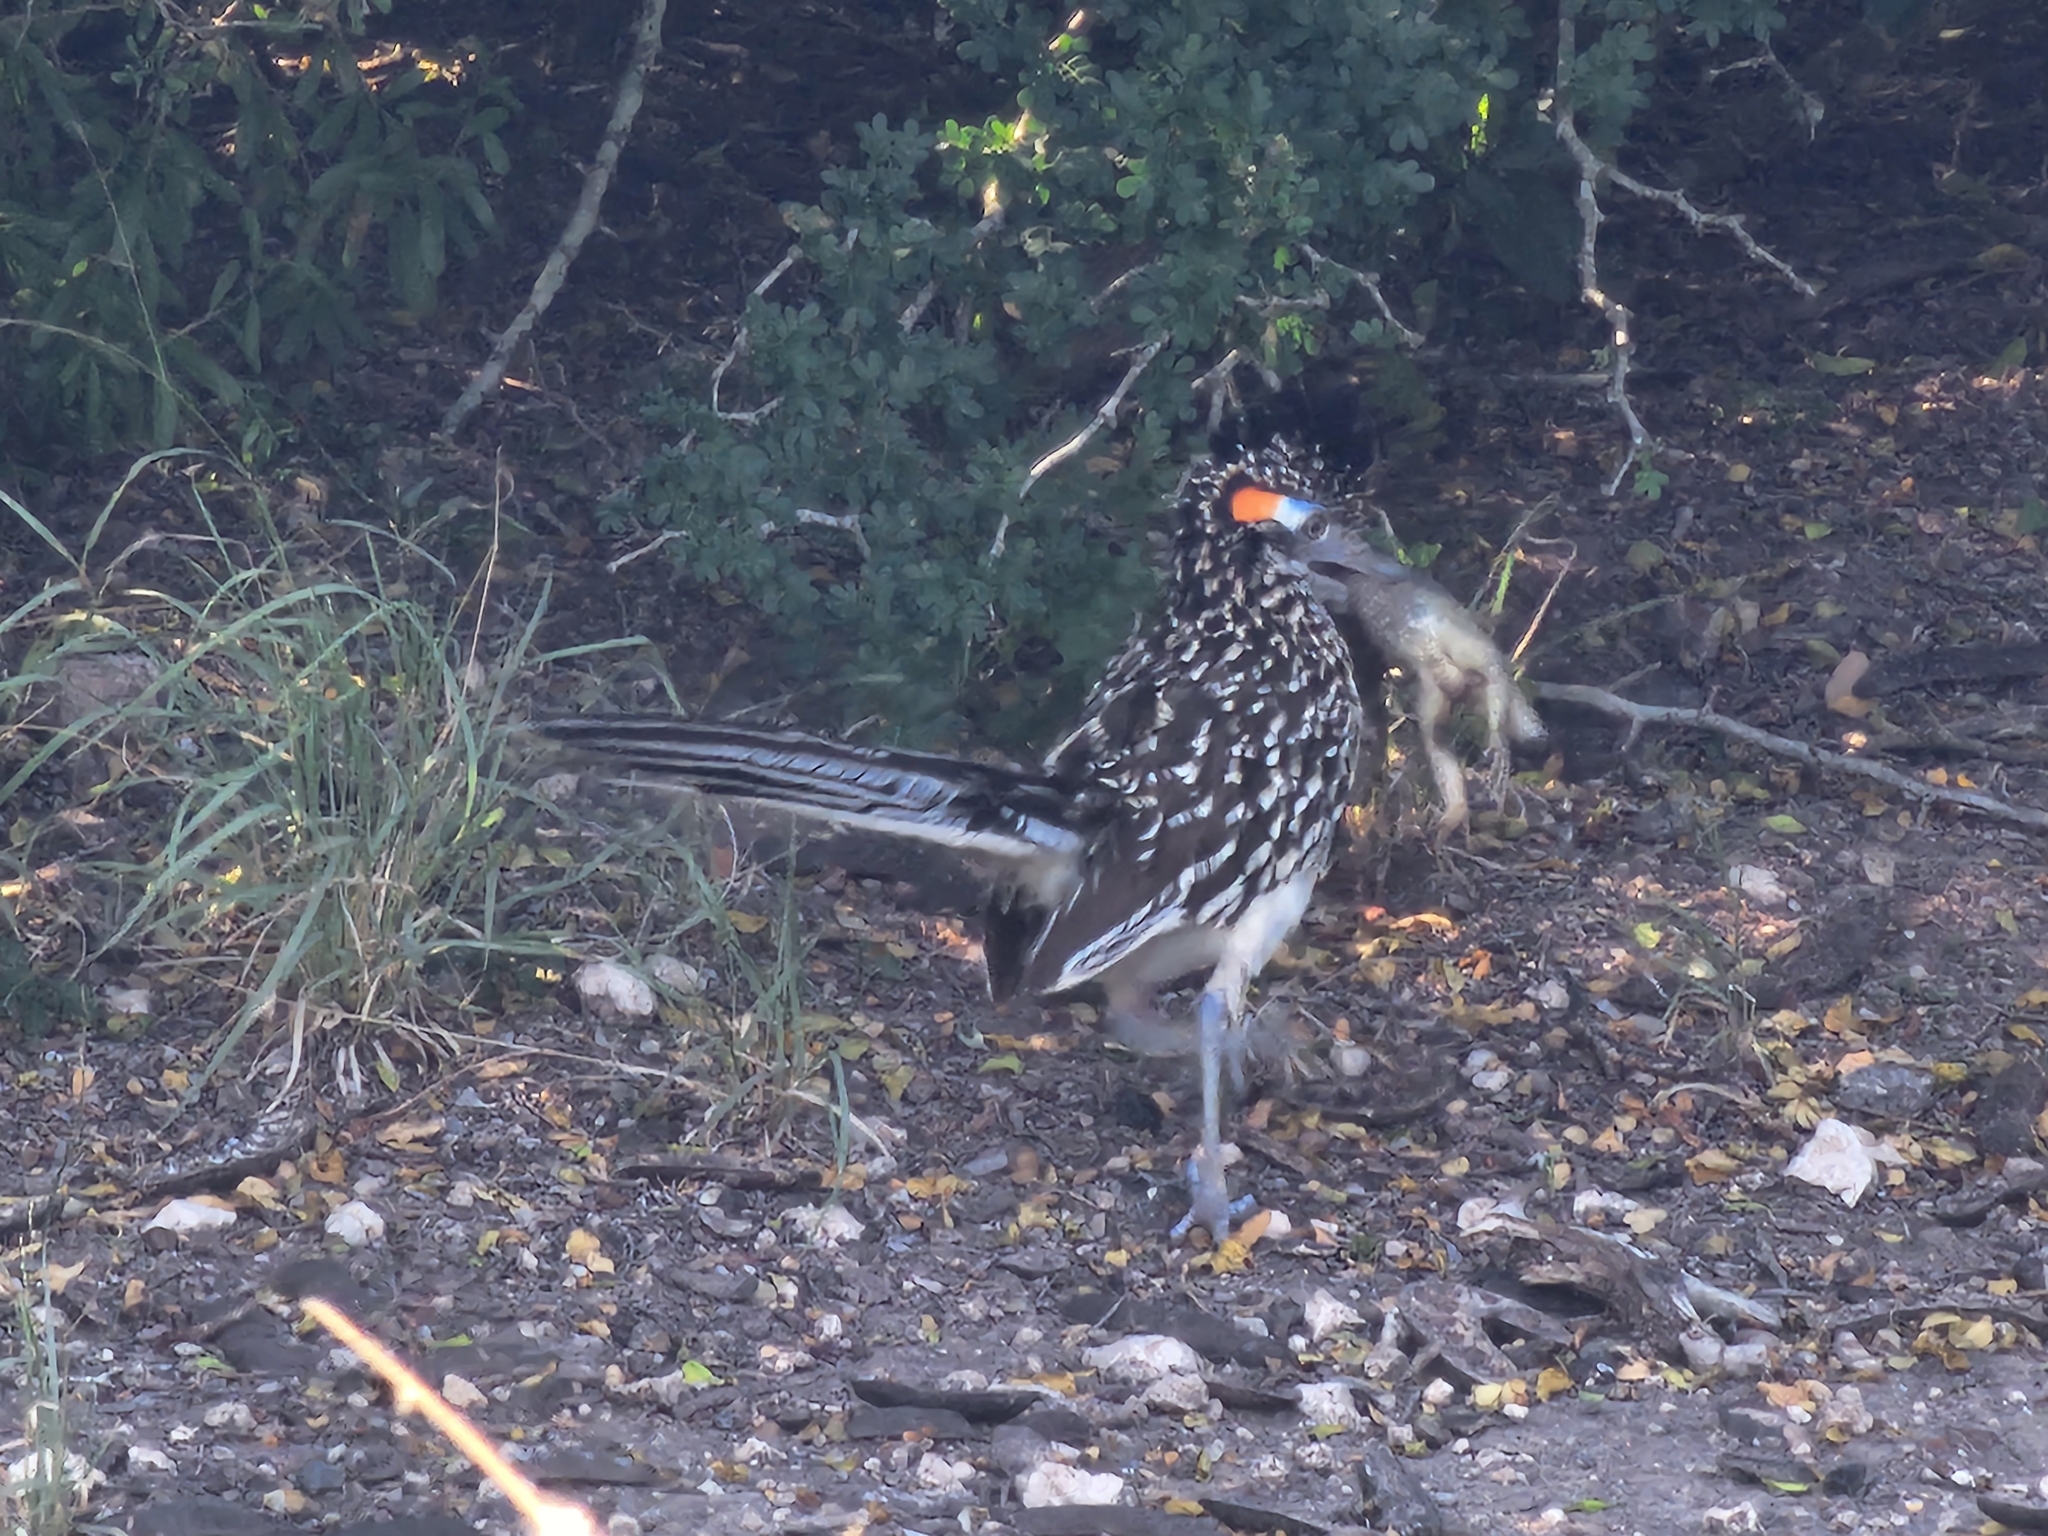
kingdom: Animalia
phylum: Chordata
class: Aves
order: Cuculiformes
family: Cuculidae
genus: Geococcyx
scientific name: Geococcyx californianus
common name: Greater roadrunner
